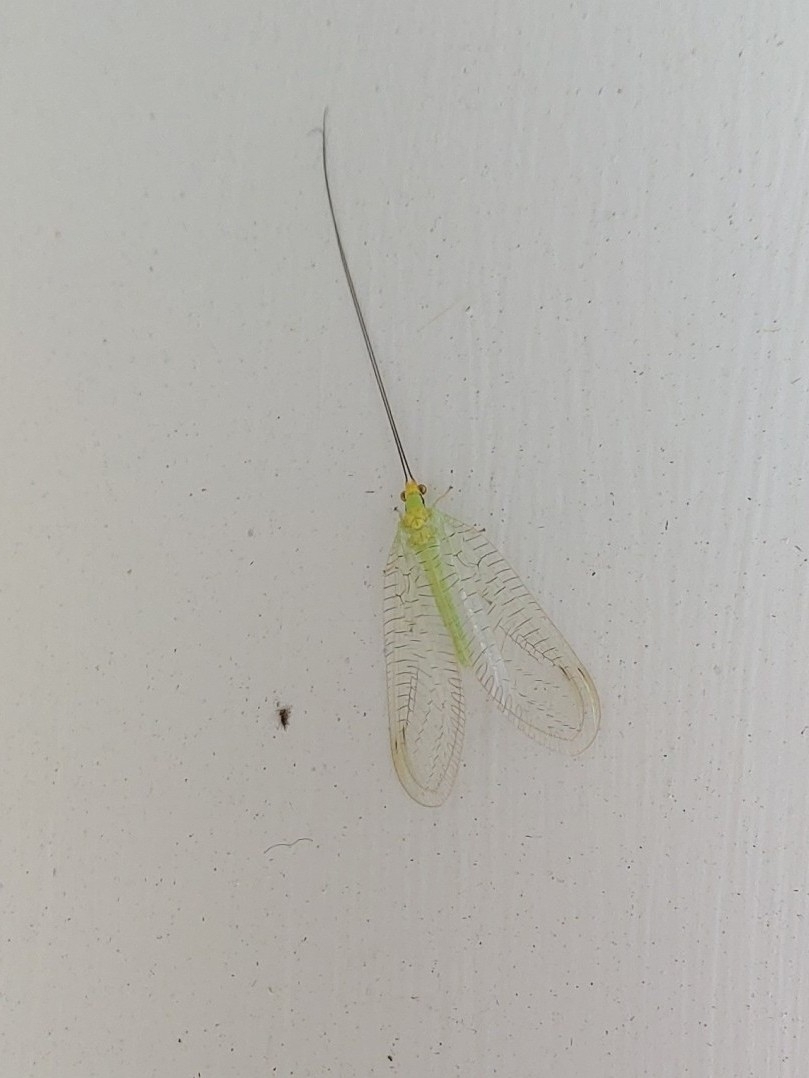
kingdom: Animalia
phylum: Arthropoda
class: Insecta
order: Neuroptera
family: Chrysopidae
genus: Leucochrysa
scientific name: Leucochrysa pavida
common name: Lichen-carrying green lacewing
